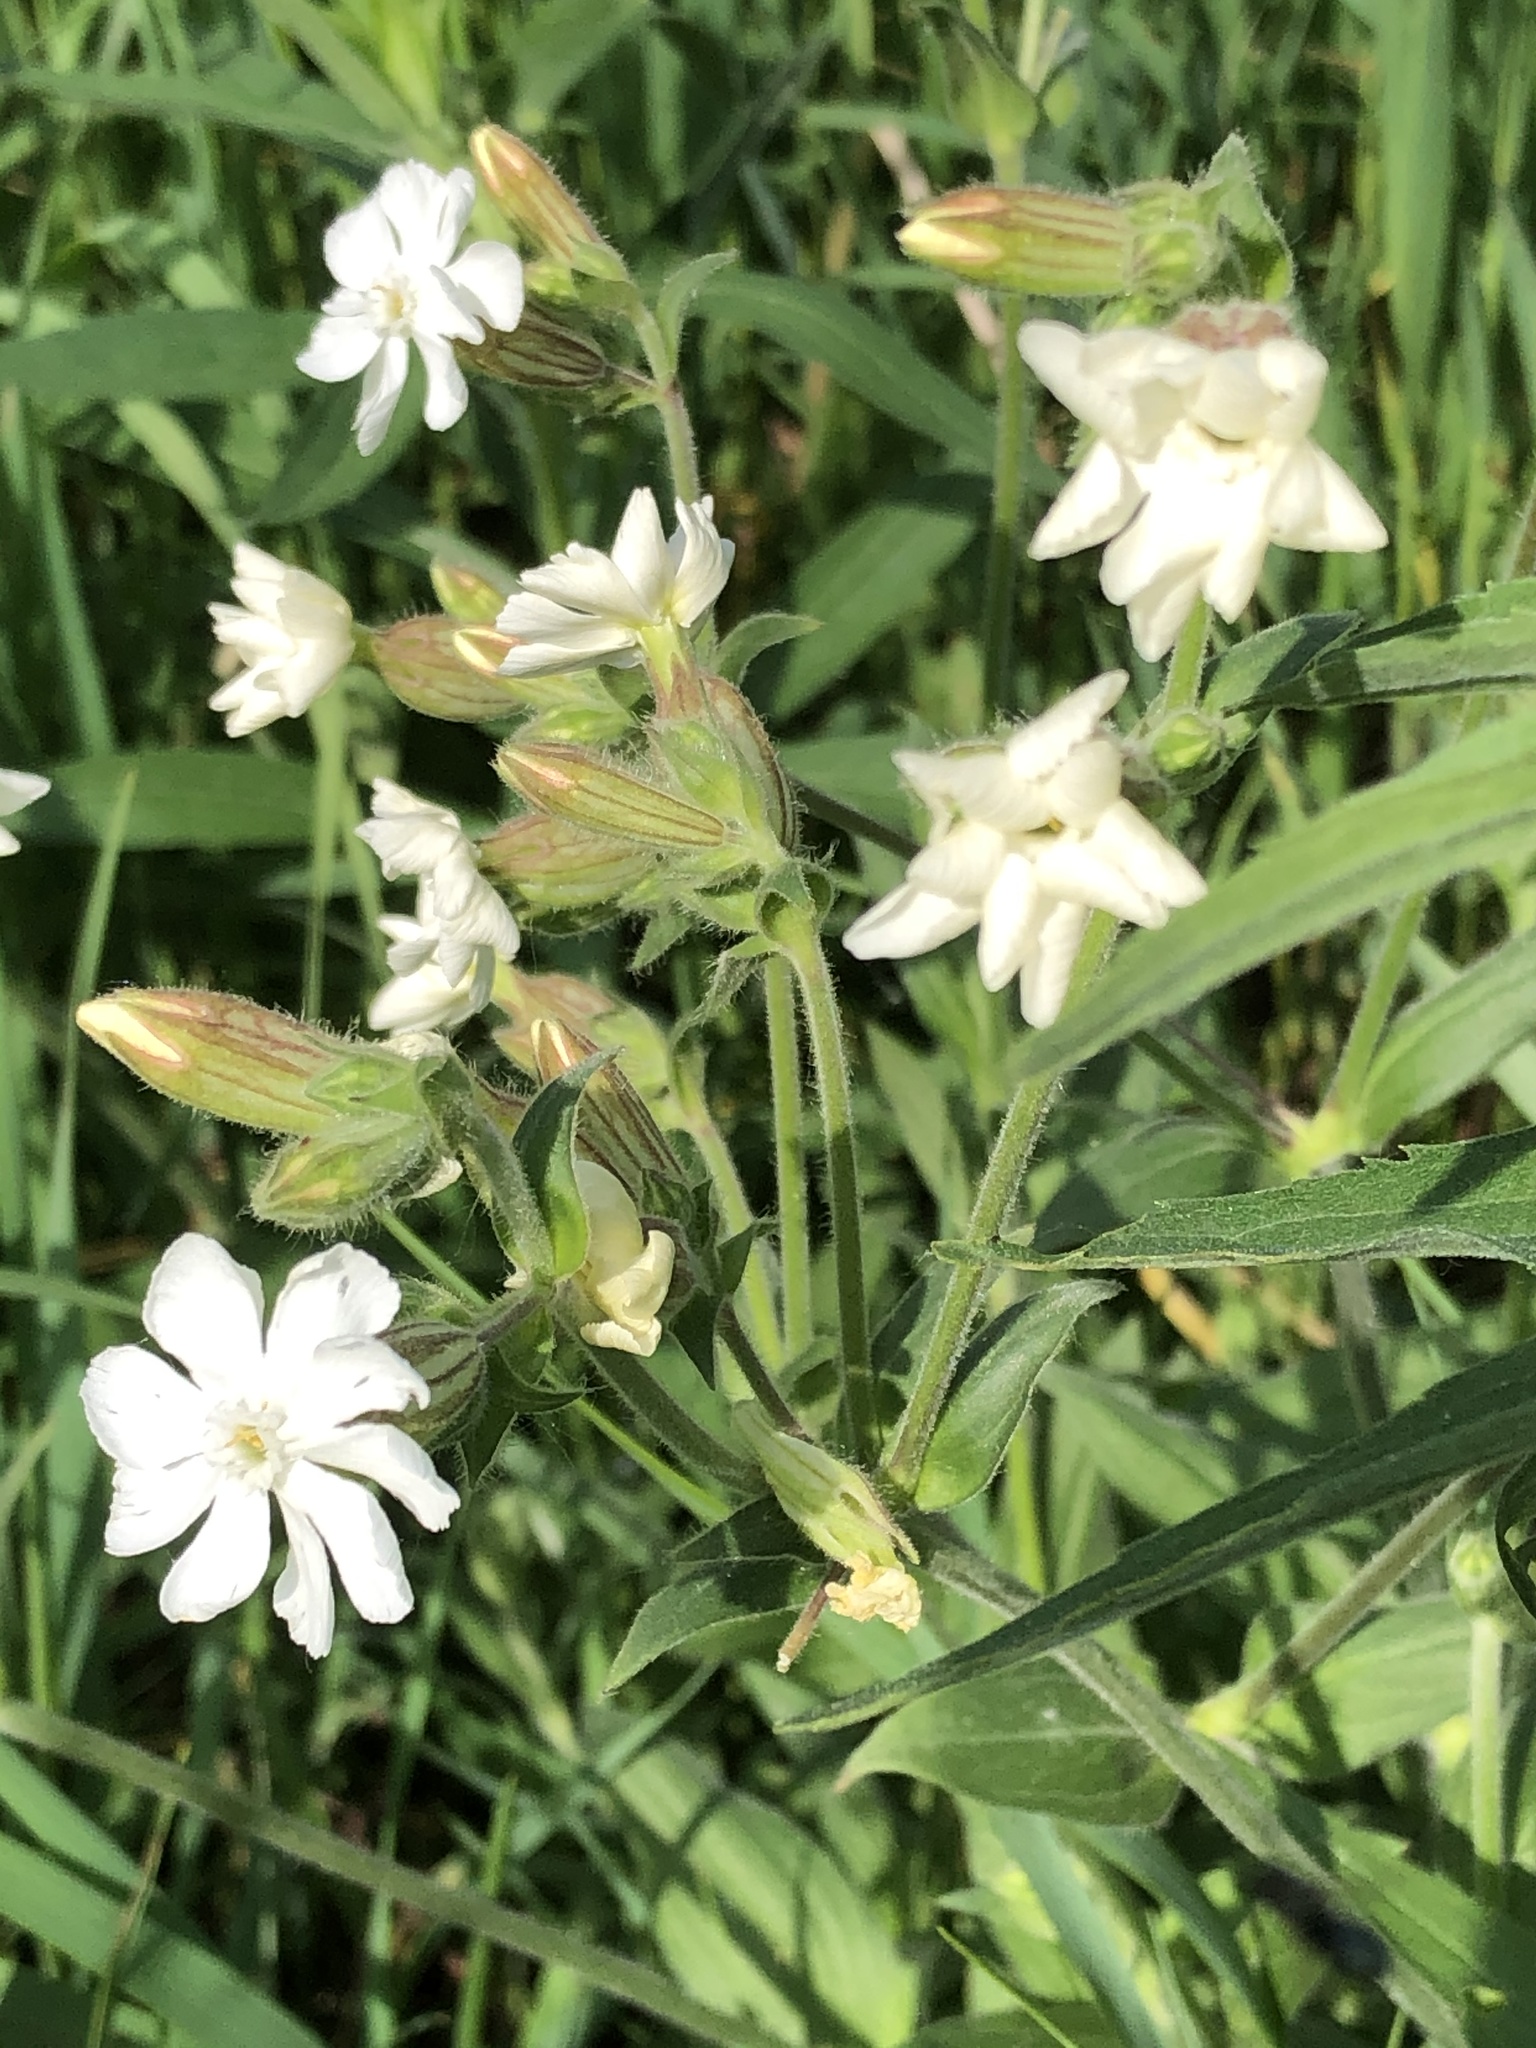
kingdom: Plantae
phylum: Tracheophyta
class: Magnoliopsida
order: Caryophyllales
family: Caryophyllaceae
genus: Silene
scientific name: Silene latifolia
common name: White campion
